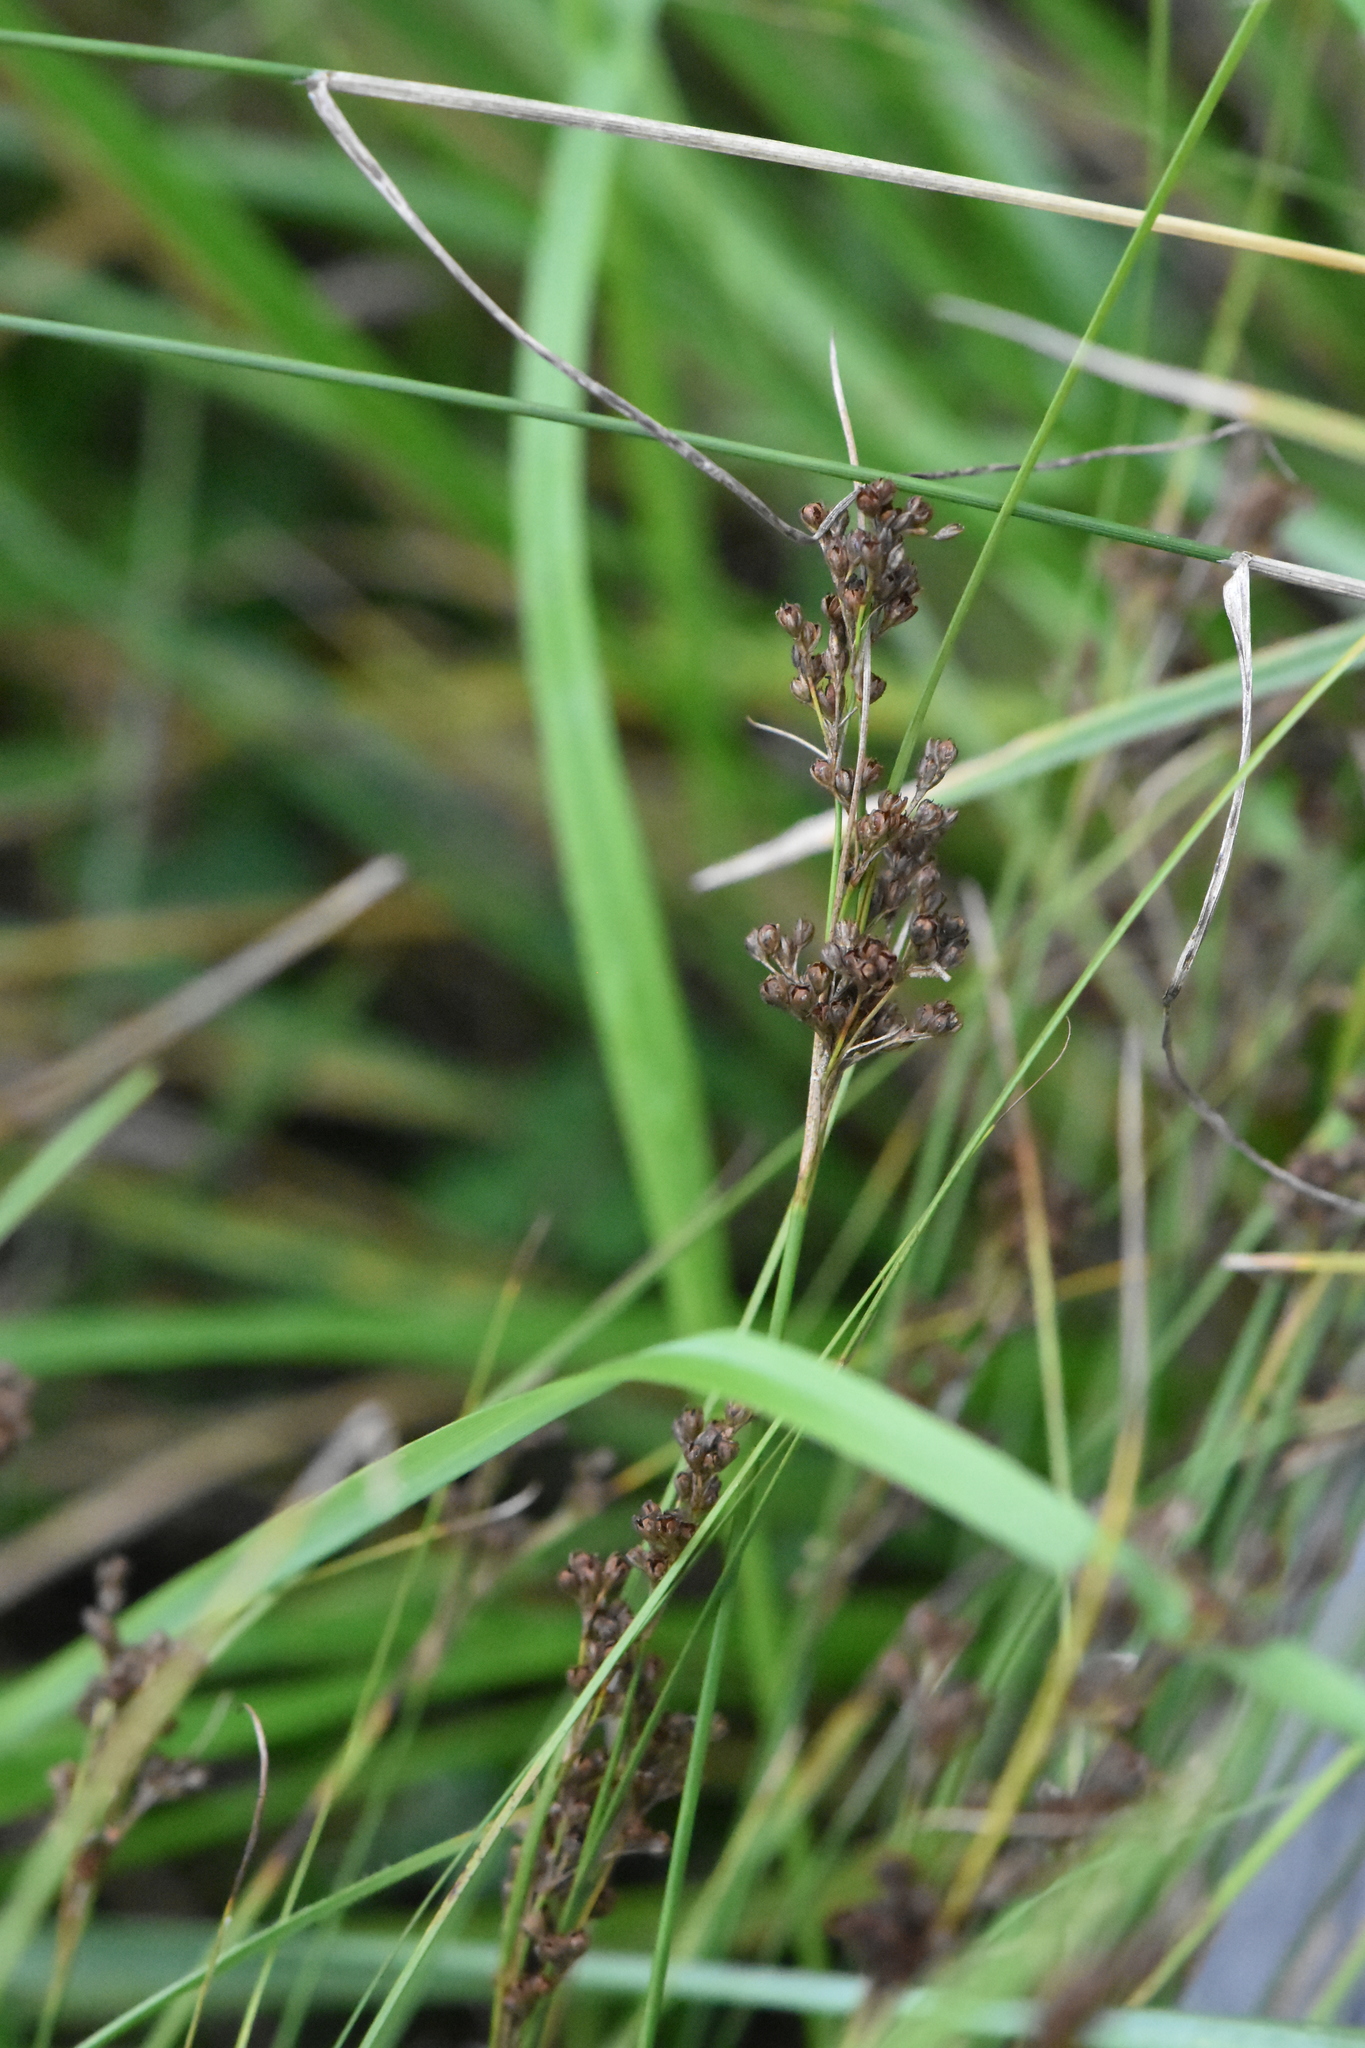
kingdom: Plantae
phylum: Tracheophyta
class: Liliopsida
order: Poales
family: Juncaceae
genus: Juncus
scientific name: Juncus compressus
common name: Round-fruited rush
